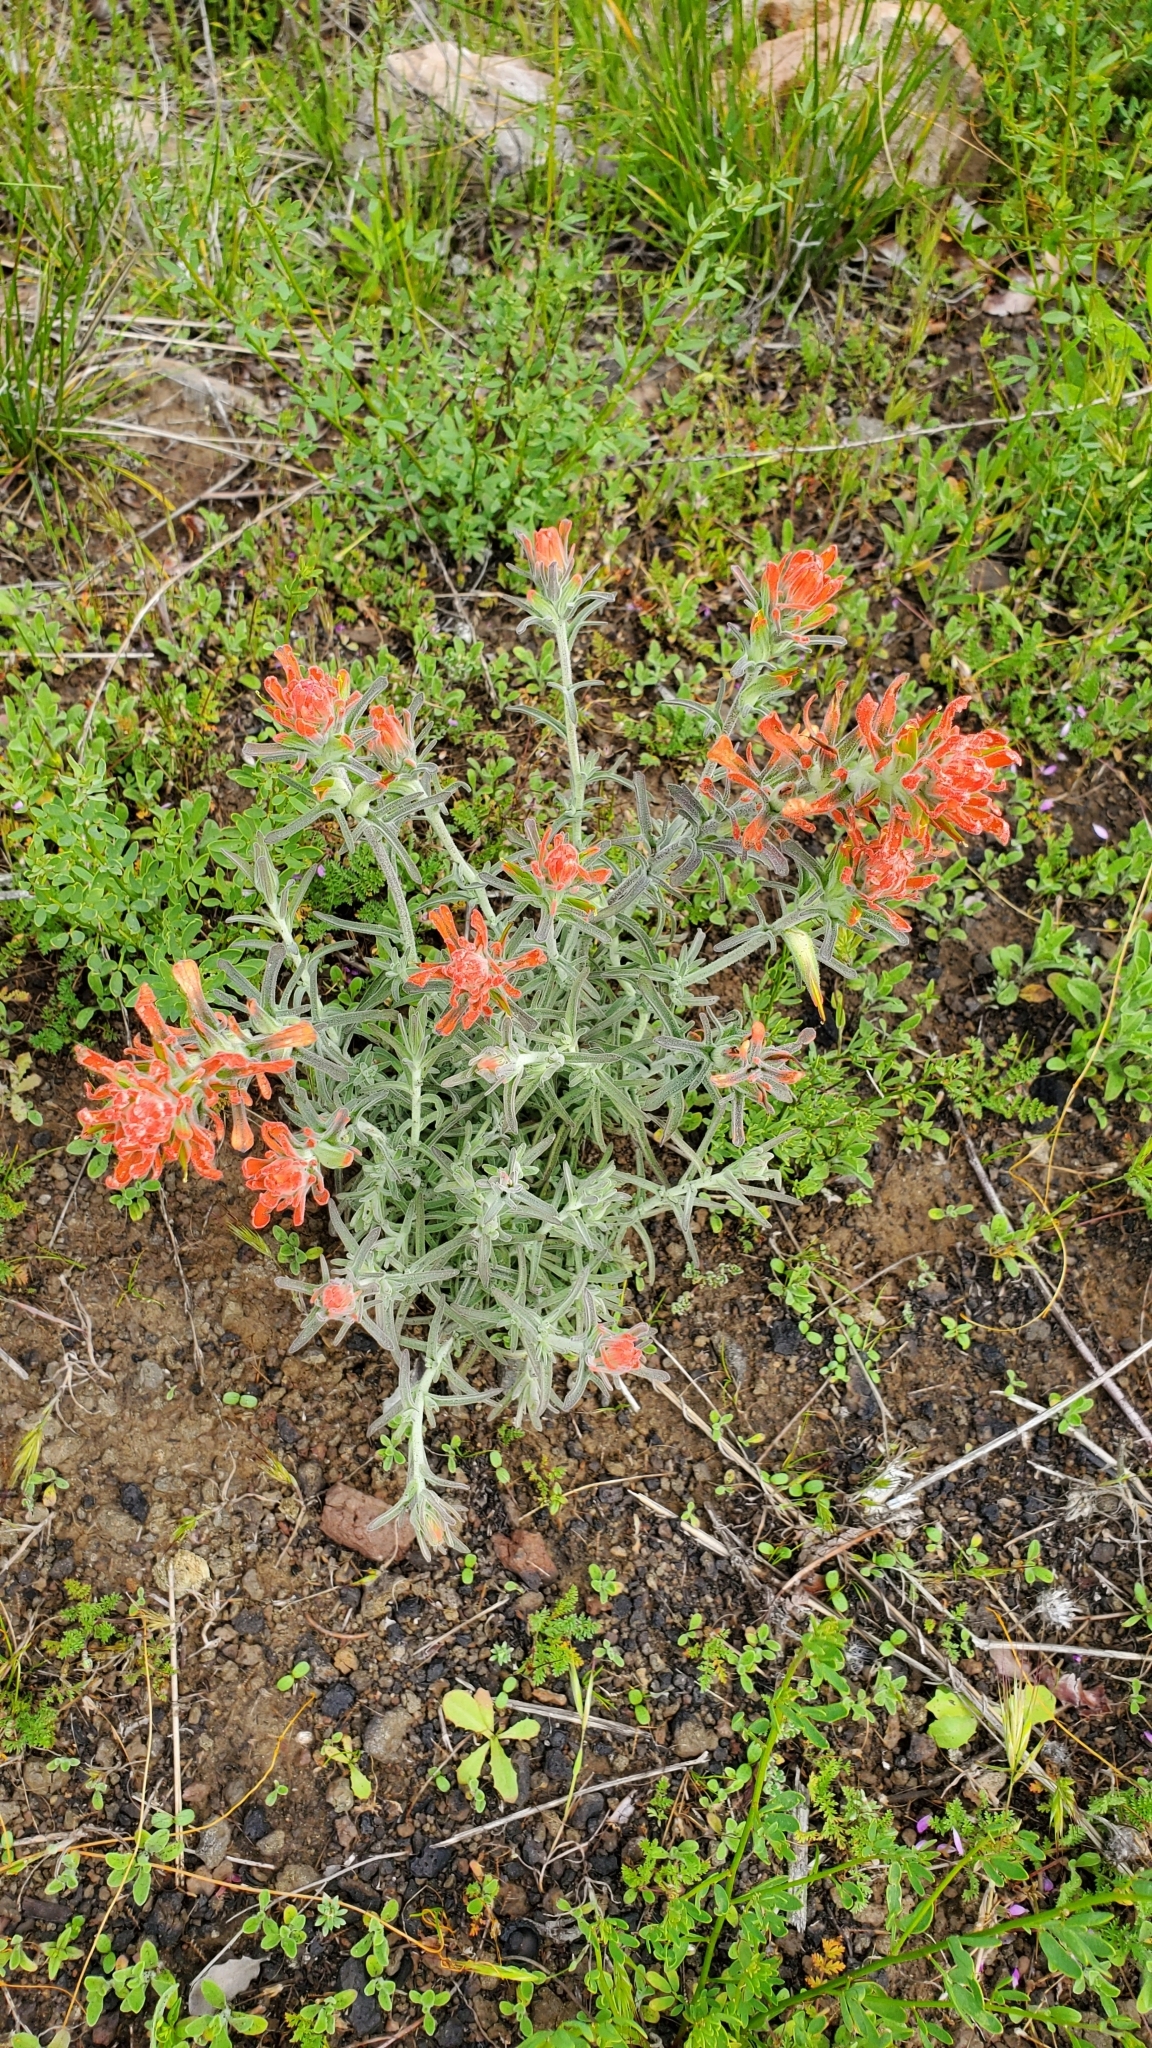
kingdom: Plantae
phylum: Tracheophyta
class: Magnoliopsida
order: Lamiales
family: Orobanchaceae
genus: Castilleja
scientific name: Castilleja foliolosa
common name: Woolly indian paintbrush
